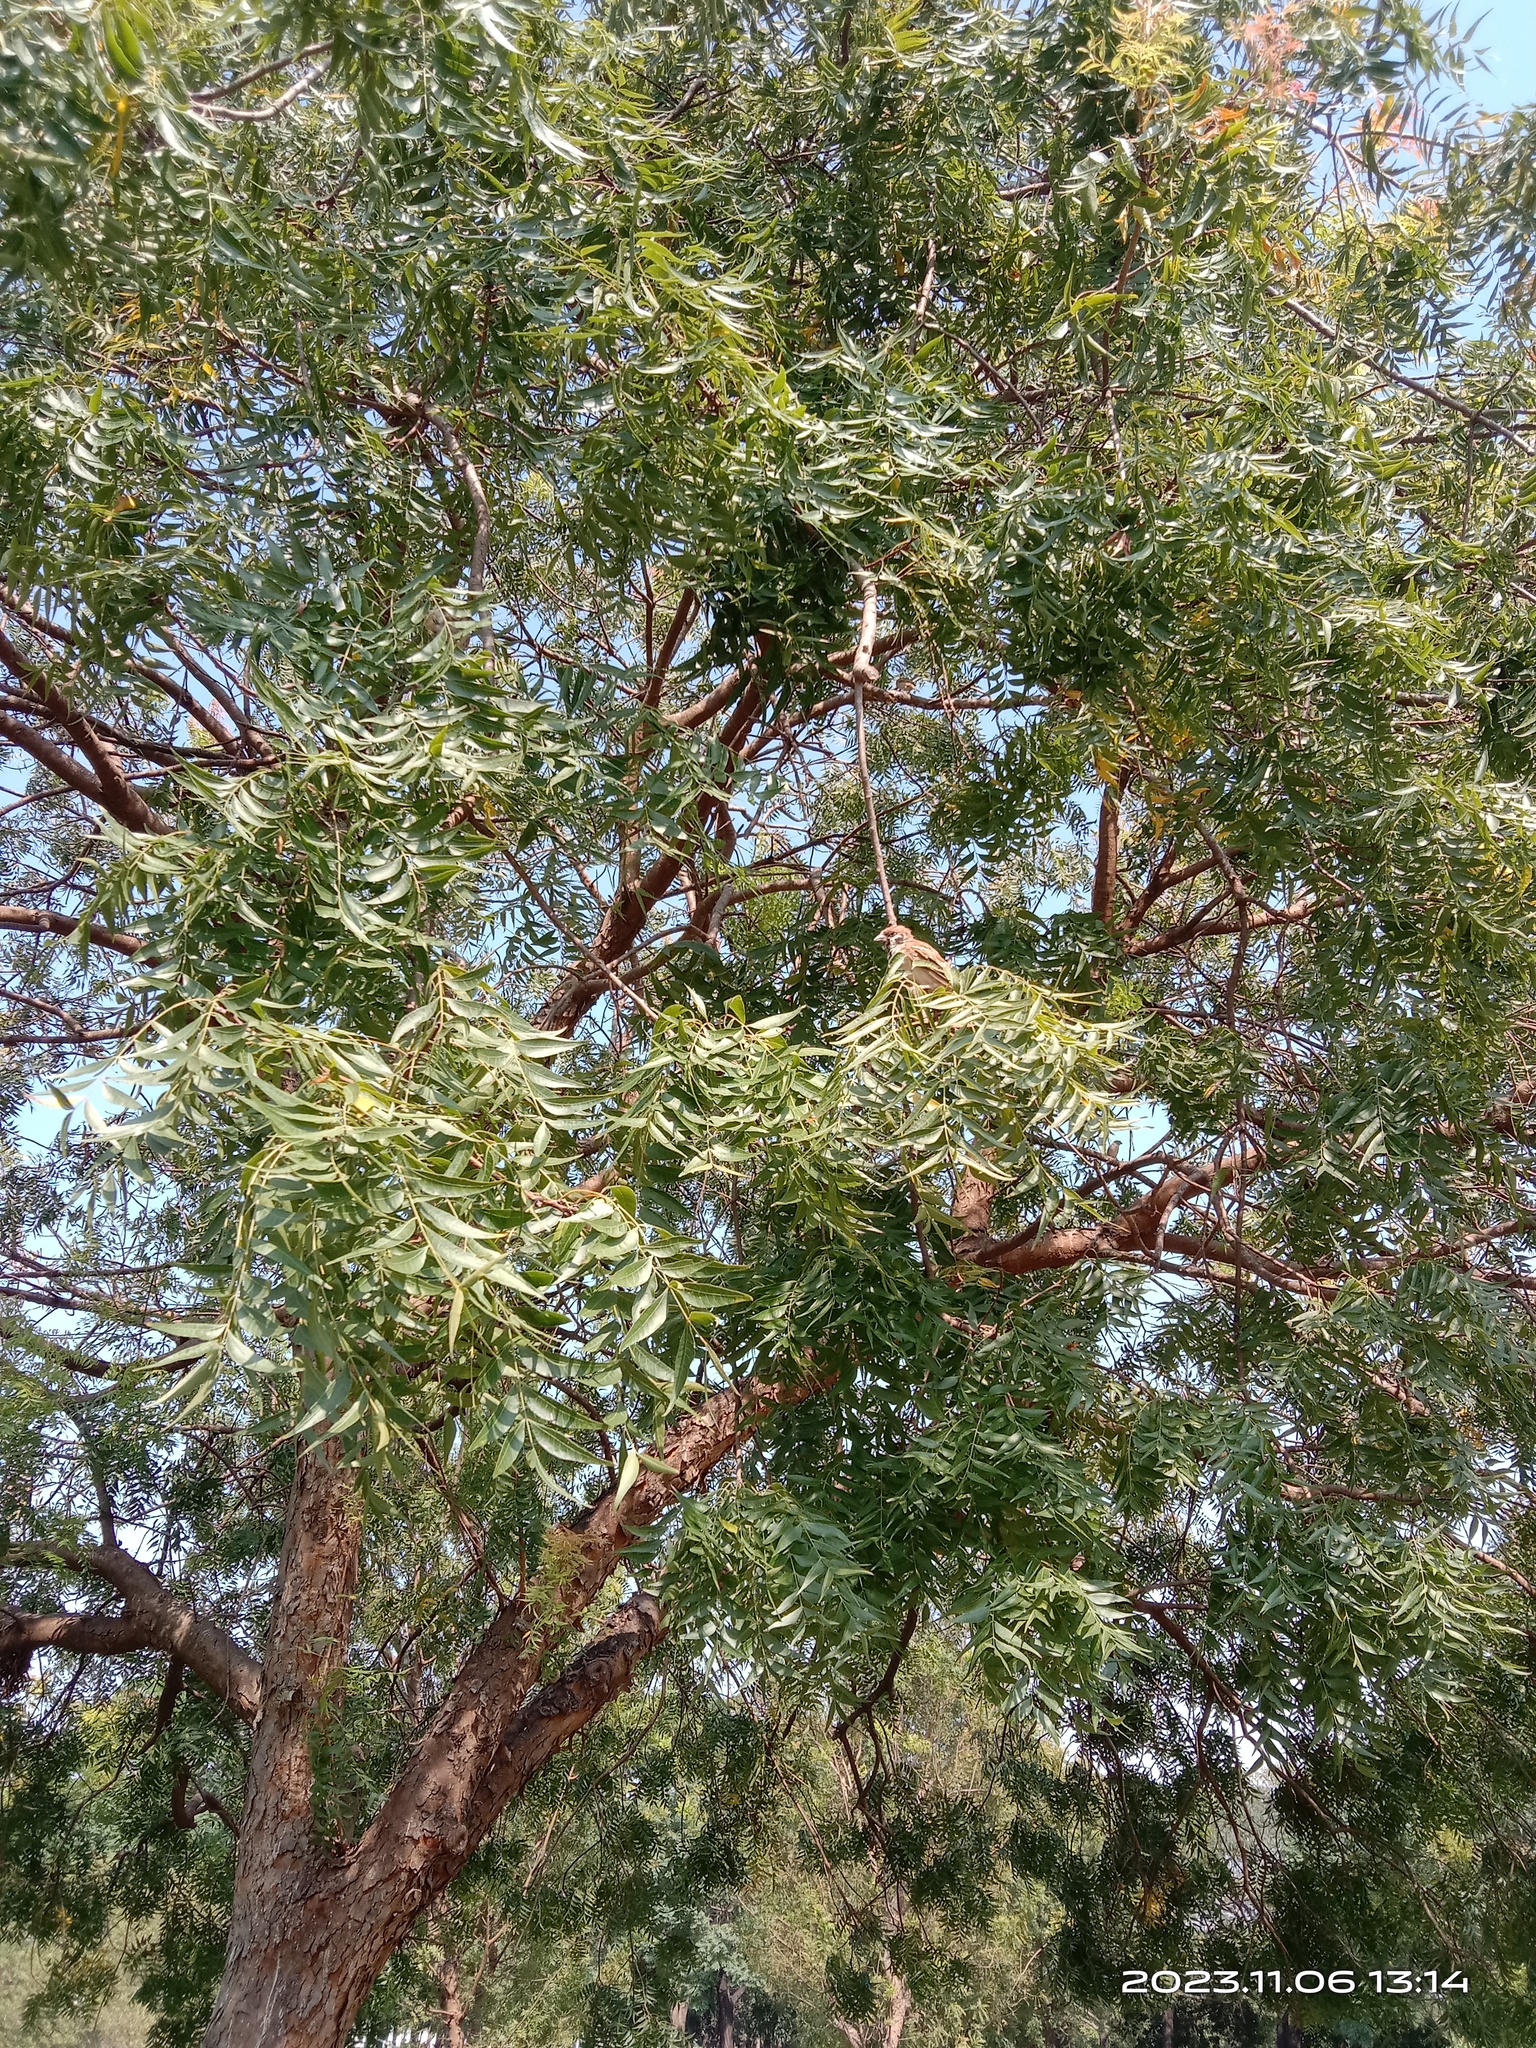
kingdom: Animalia
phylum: Chordata
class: Aves
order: Passeriformes
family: Passeridae
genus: Passer
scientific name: Passer montanus
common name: Eurasian tree sparrow
